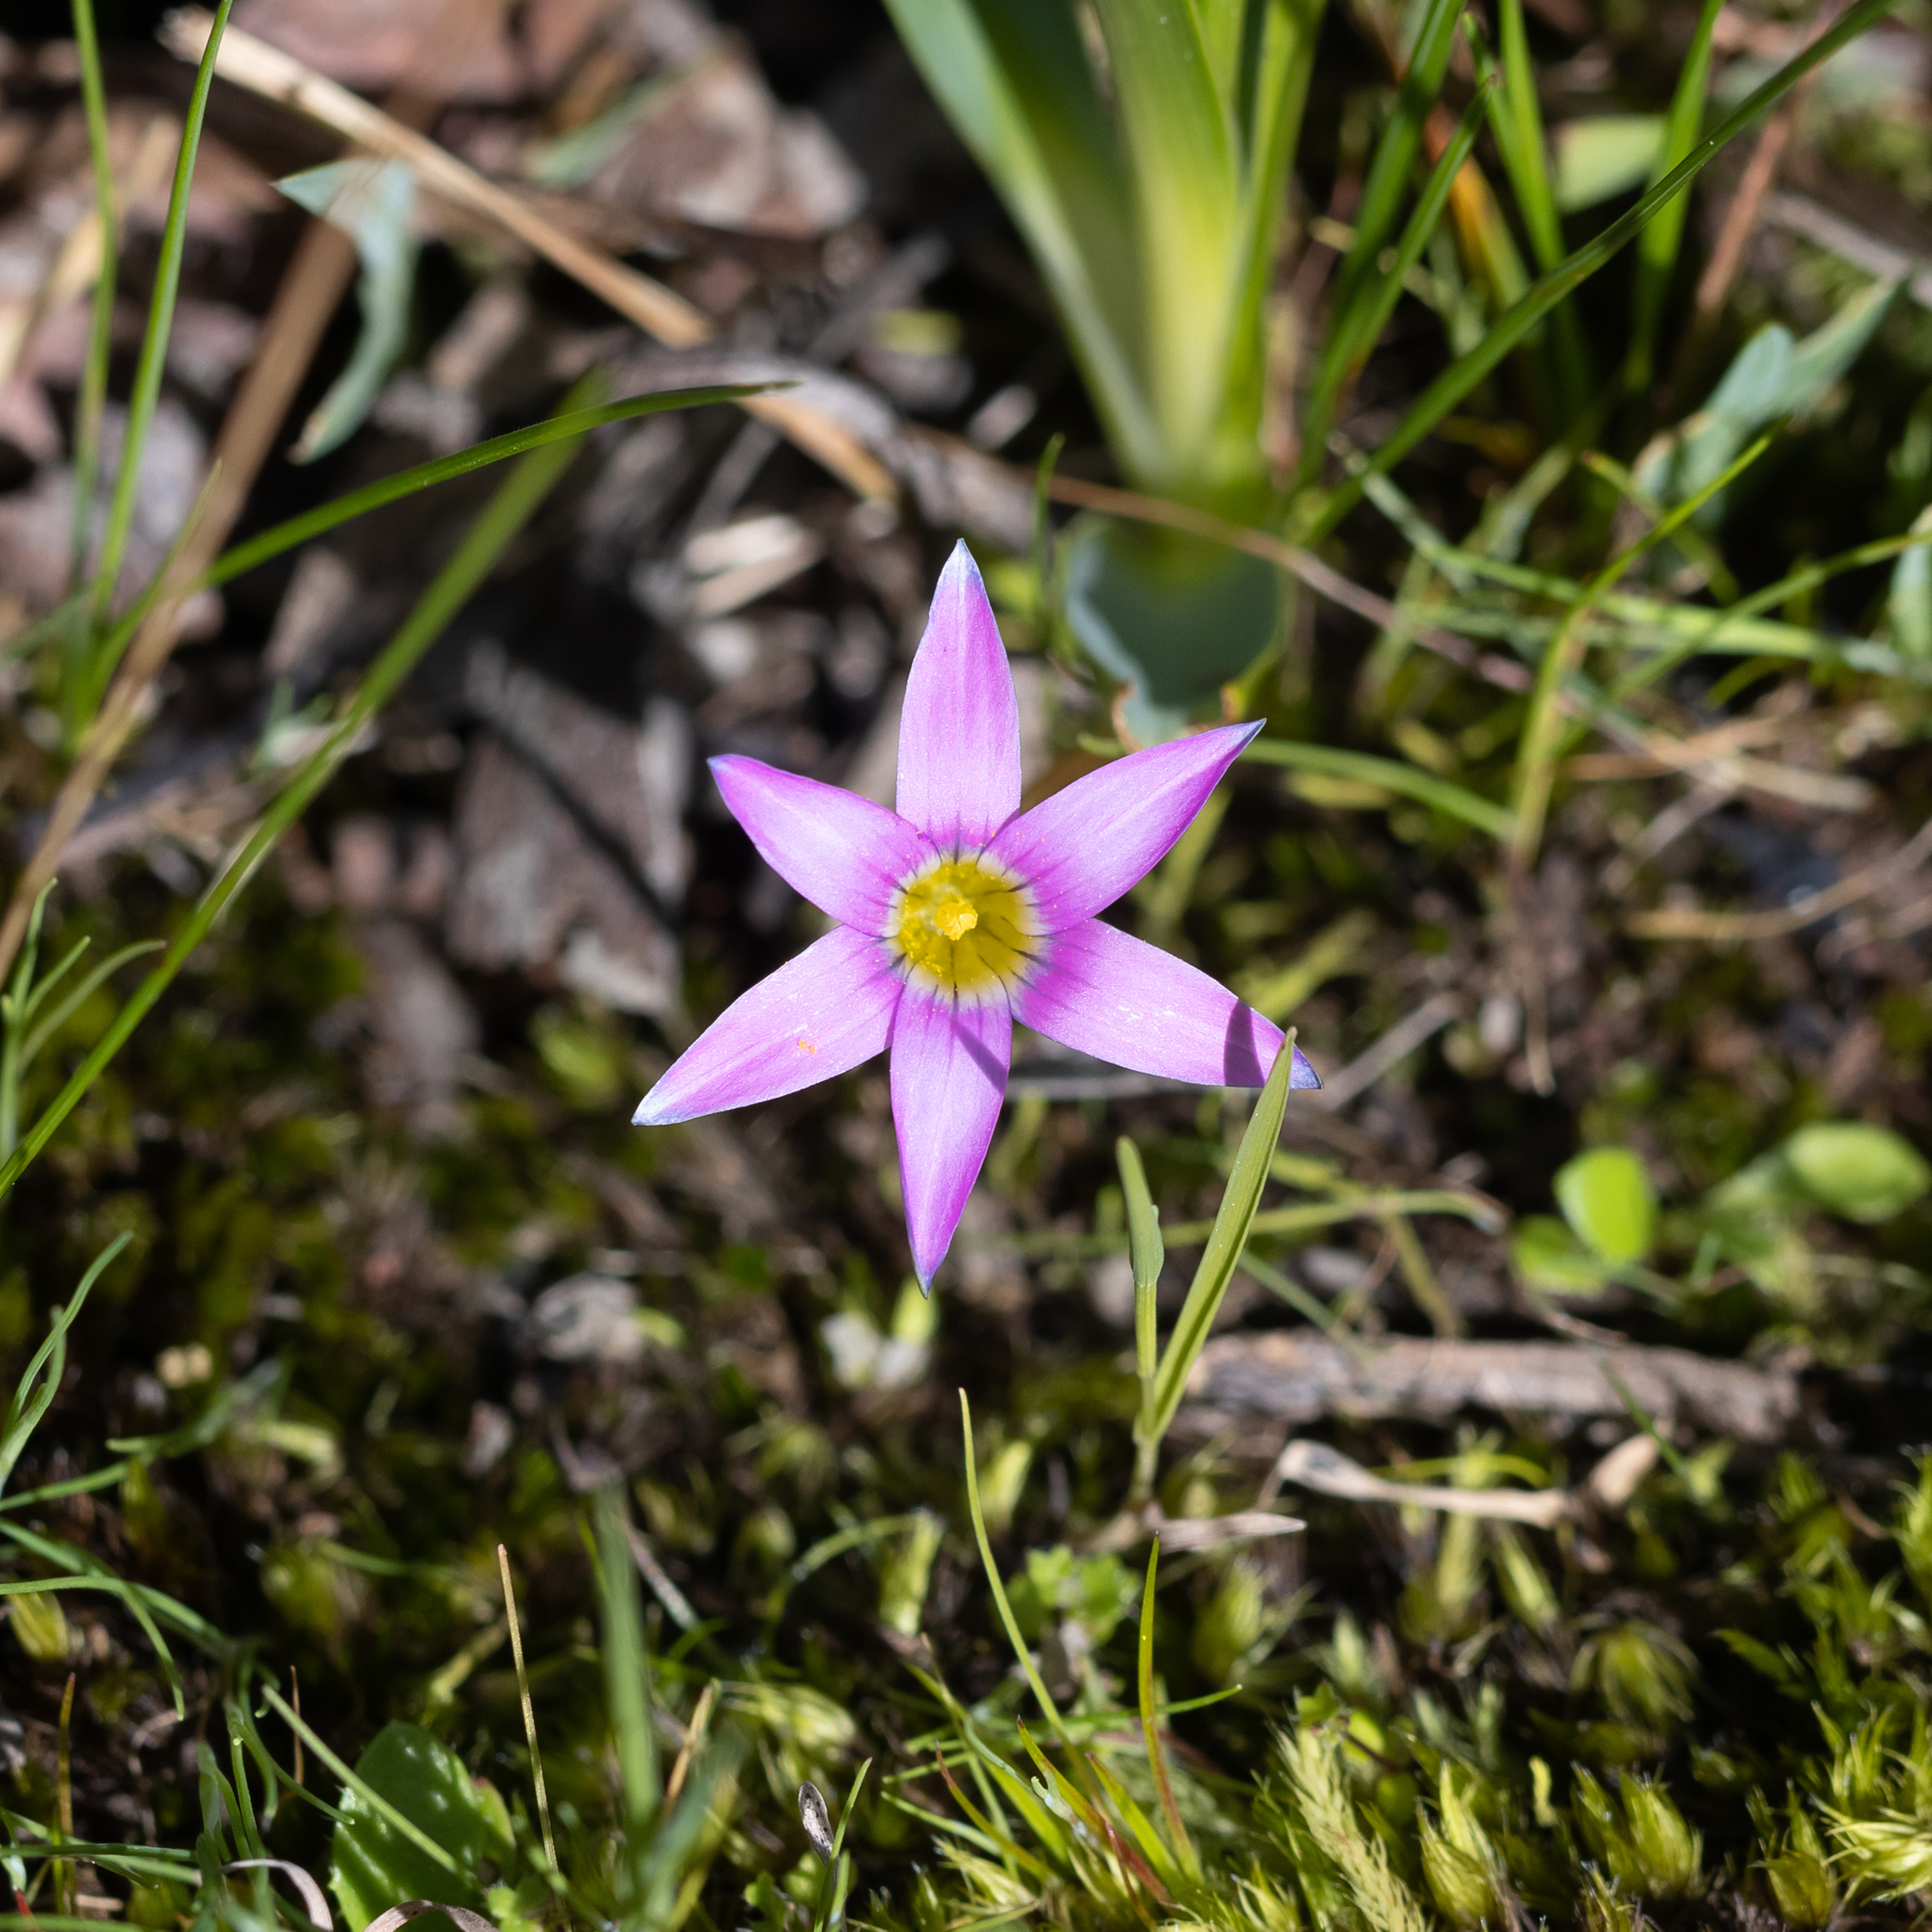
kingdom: Plantae
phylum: Tracheophyta
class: Liliopsida
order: Asparagales
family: Iridaceae
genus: Romulea
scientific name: Romulea rosea
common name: Oniongrass
